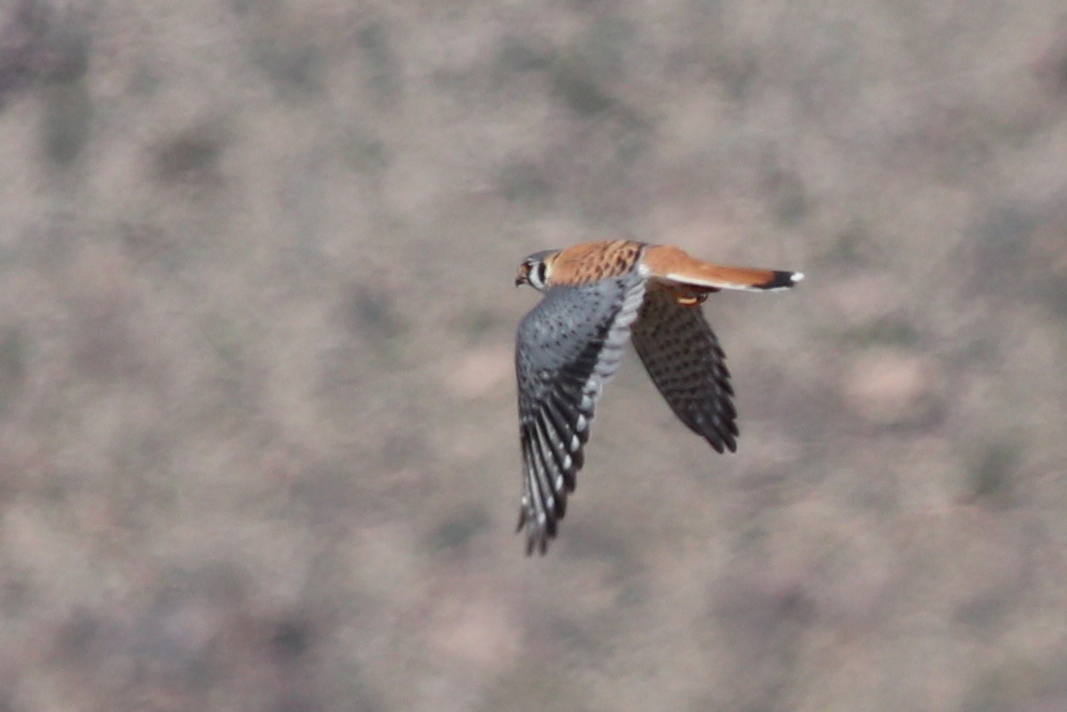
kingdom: Animalia
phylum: Chordata
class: Aves
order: Falconiformes
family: Falconidae
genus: Falco
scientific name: Falco sparverius
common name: American kestrel
